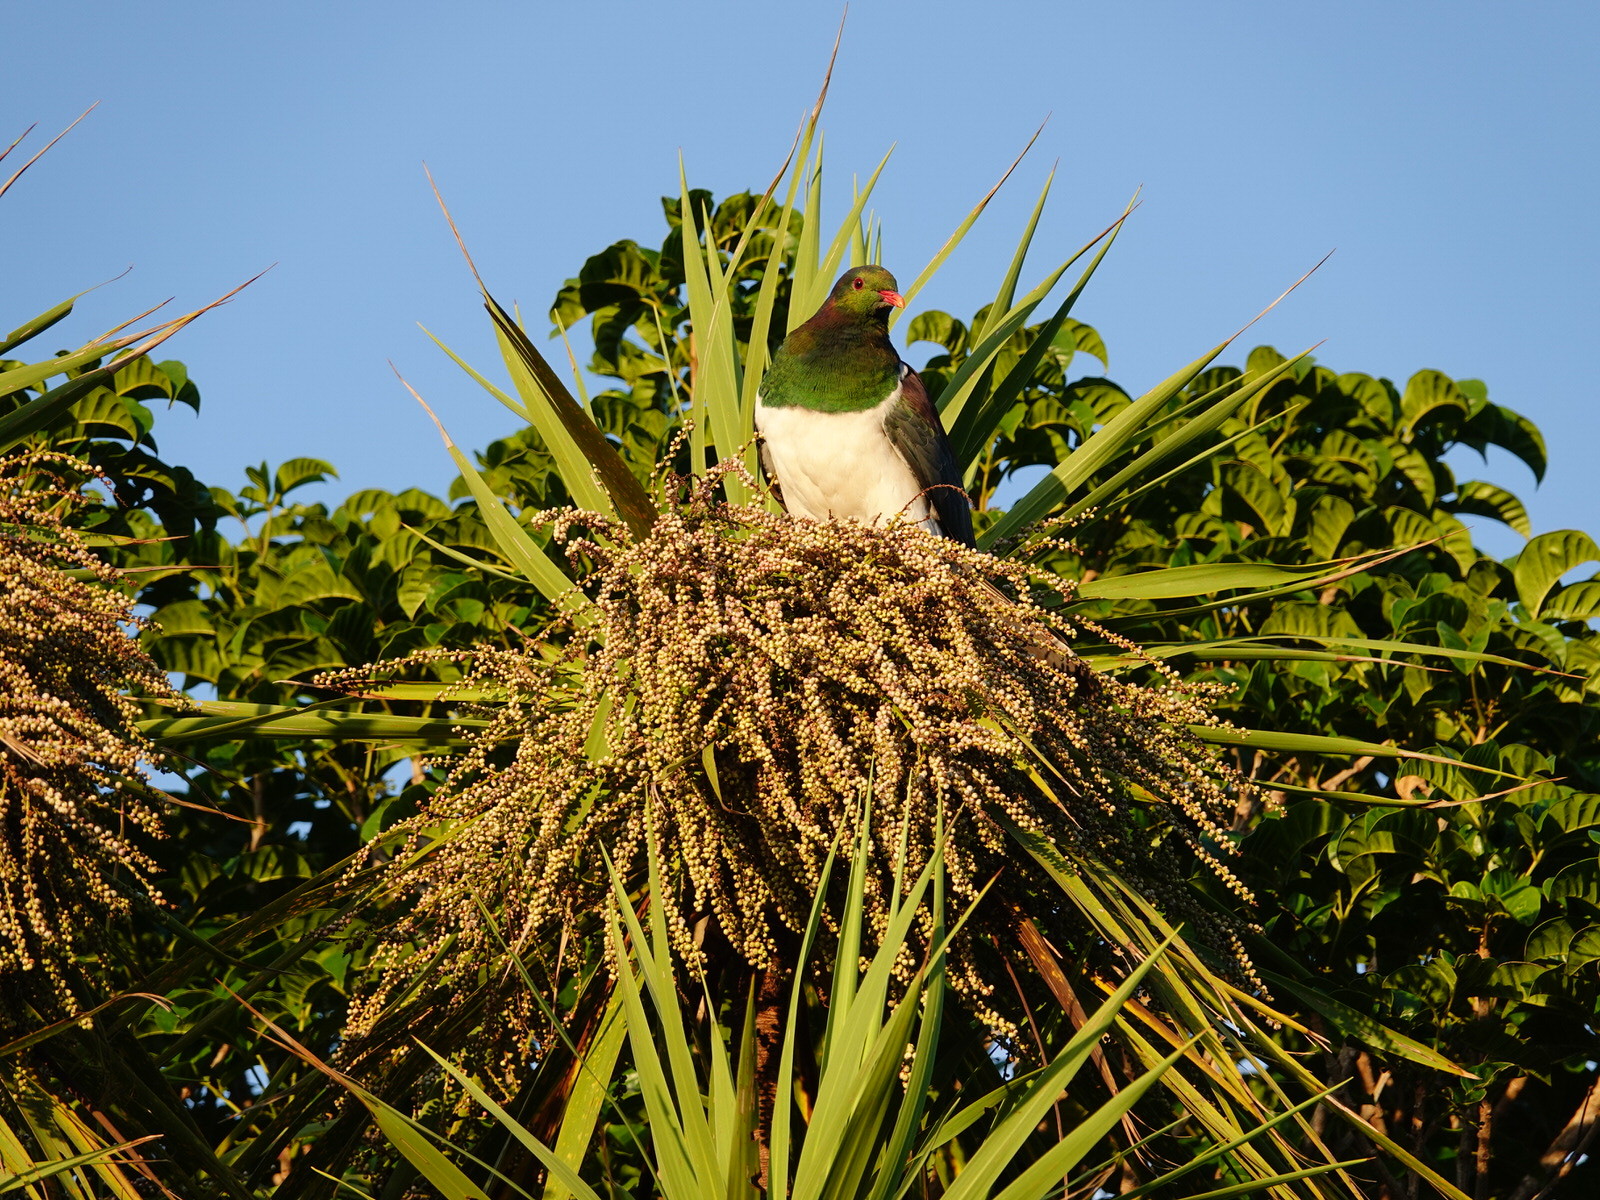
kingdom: Animalia
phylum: Chordata
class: Aves
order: Columbiformes
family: Columbidae
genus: Hemiphaga
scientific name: Hemiphaga novaeseelandiae
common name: New zealand pigeon
